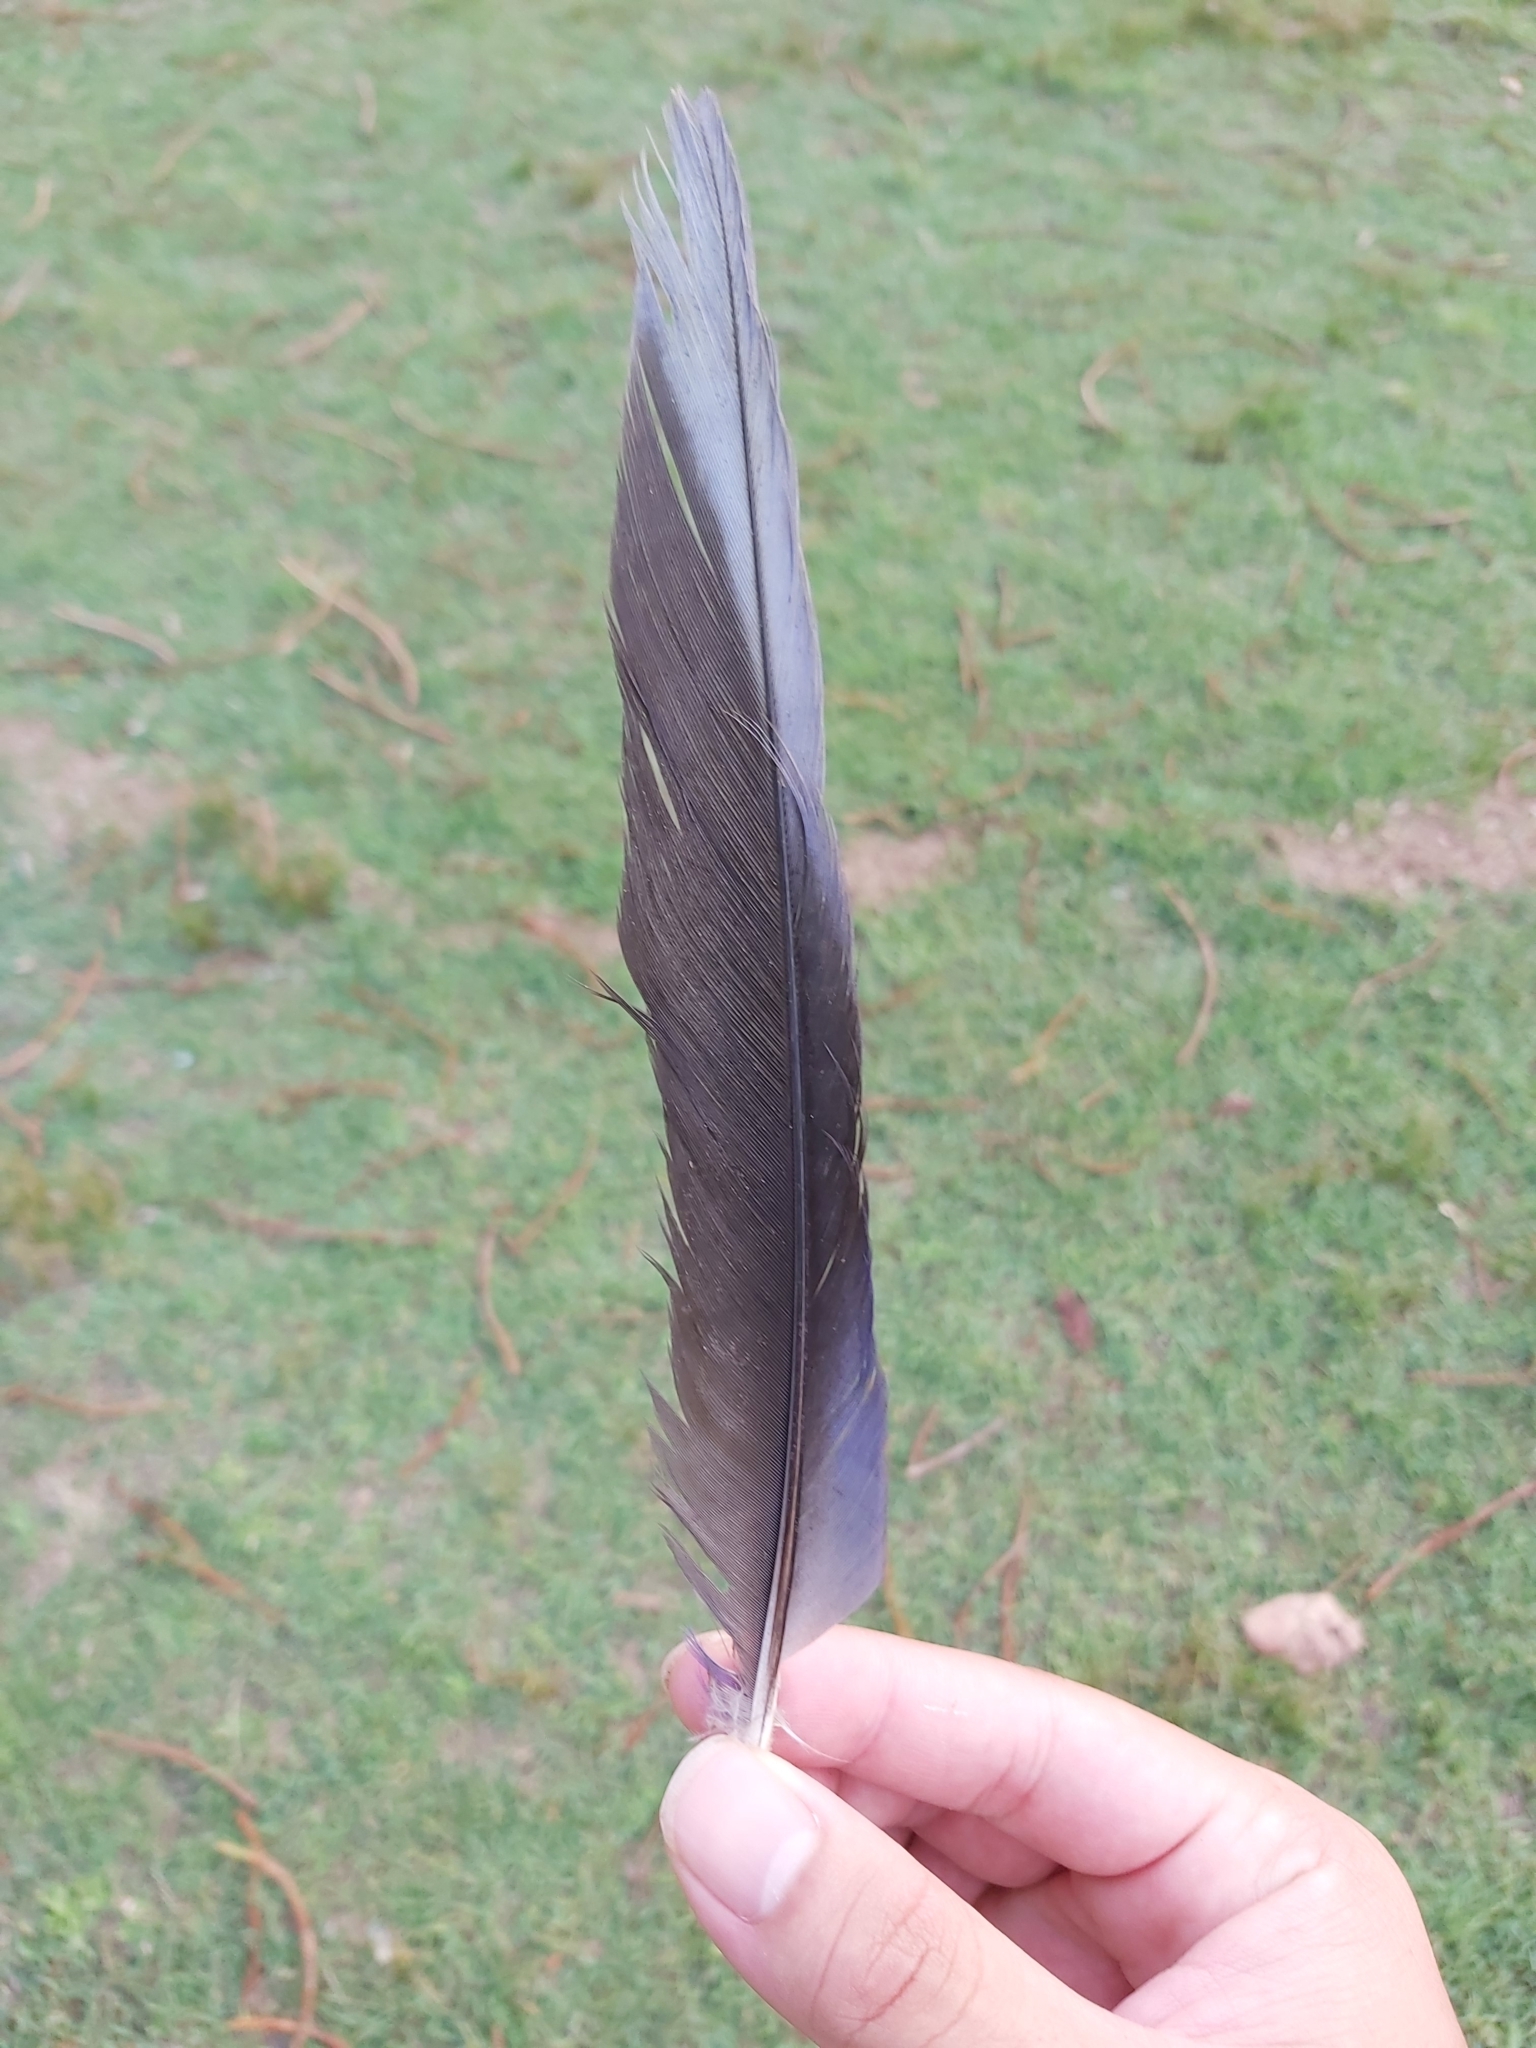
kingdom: Animalia
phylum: Chordata
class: Aves
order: Psittaciformes
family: Psittacidae
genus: Platycercus
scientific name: Platycercus elegans
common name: Crimson rosella
